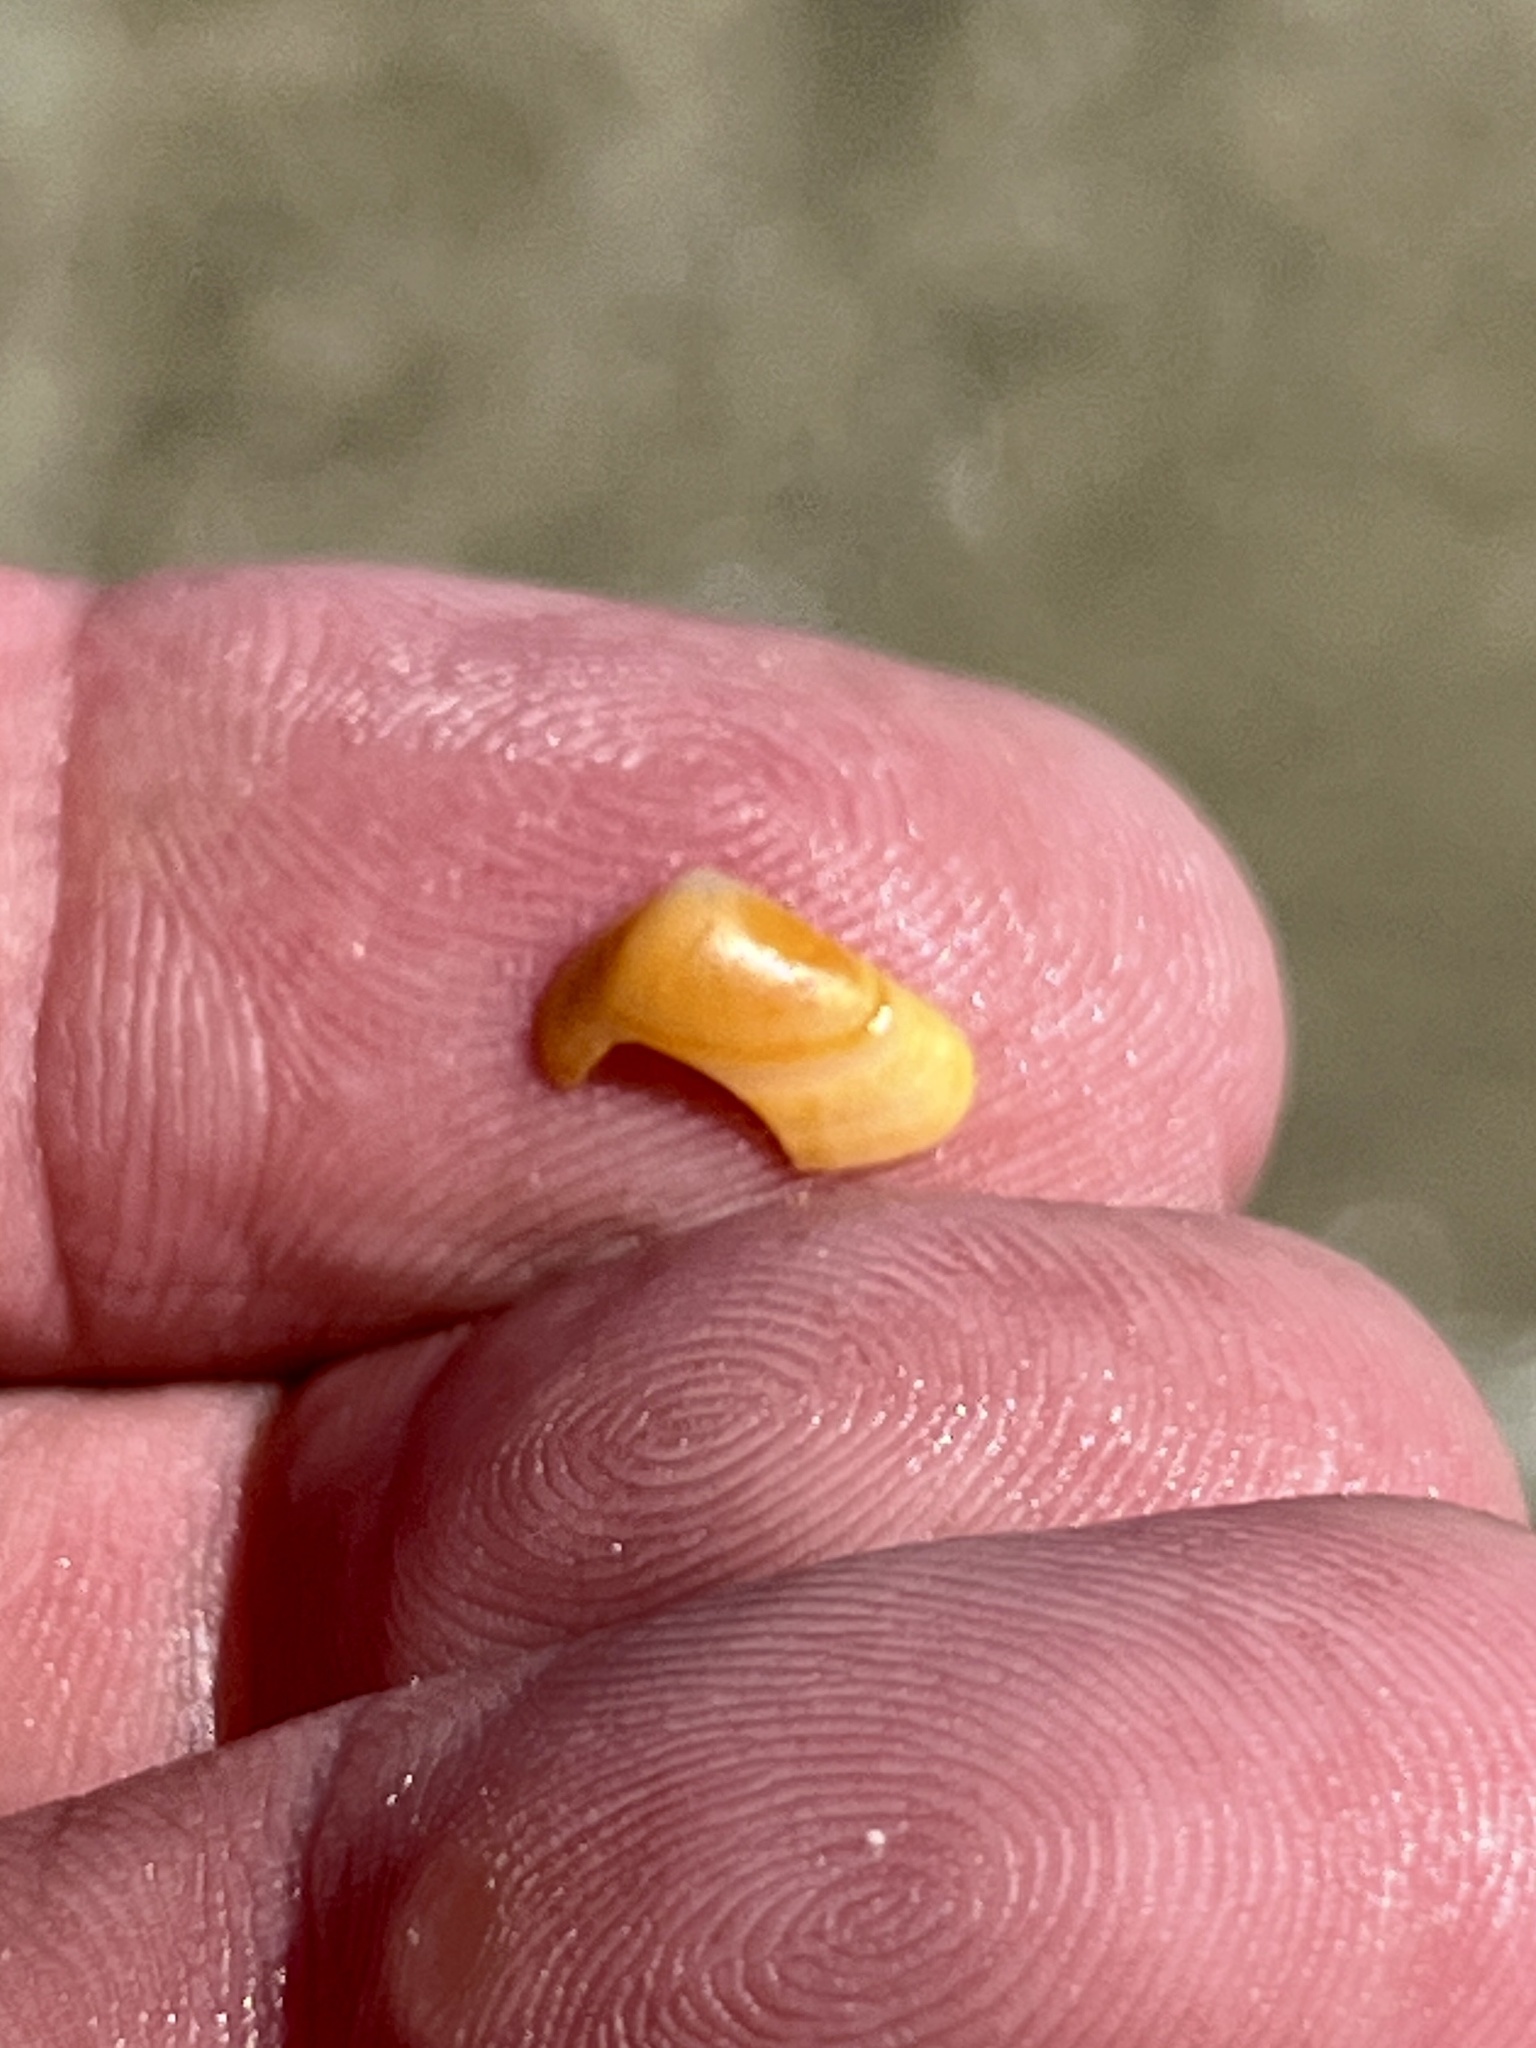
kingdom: Animalia
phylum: Mollusca
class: Bivalvia
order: Cardiida
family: Donacidae
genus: Donax
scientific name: Donax variabilis
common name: Butterfly shell
